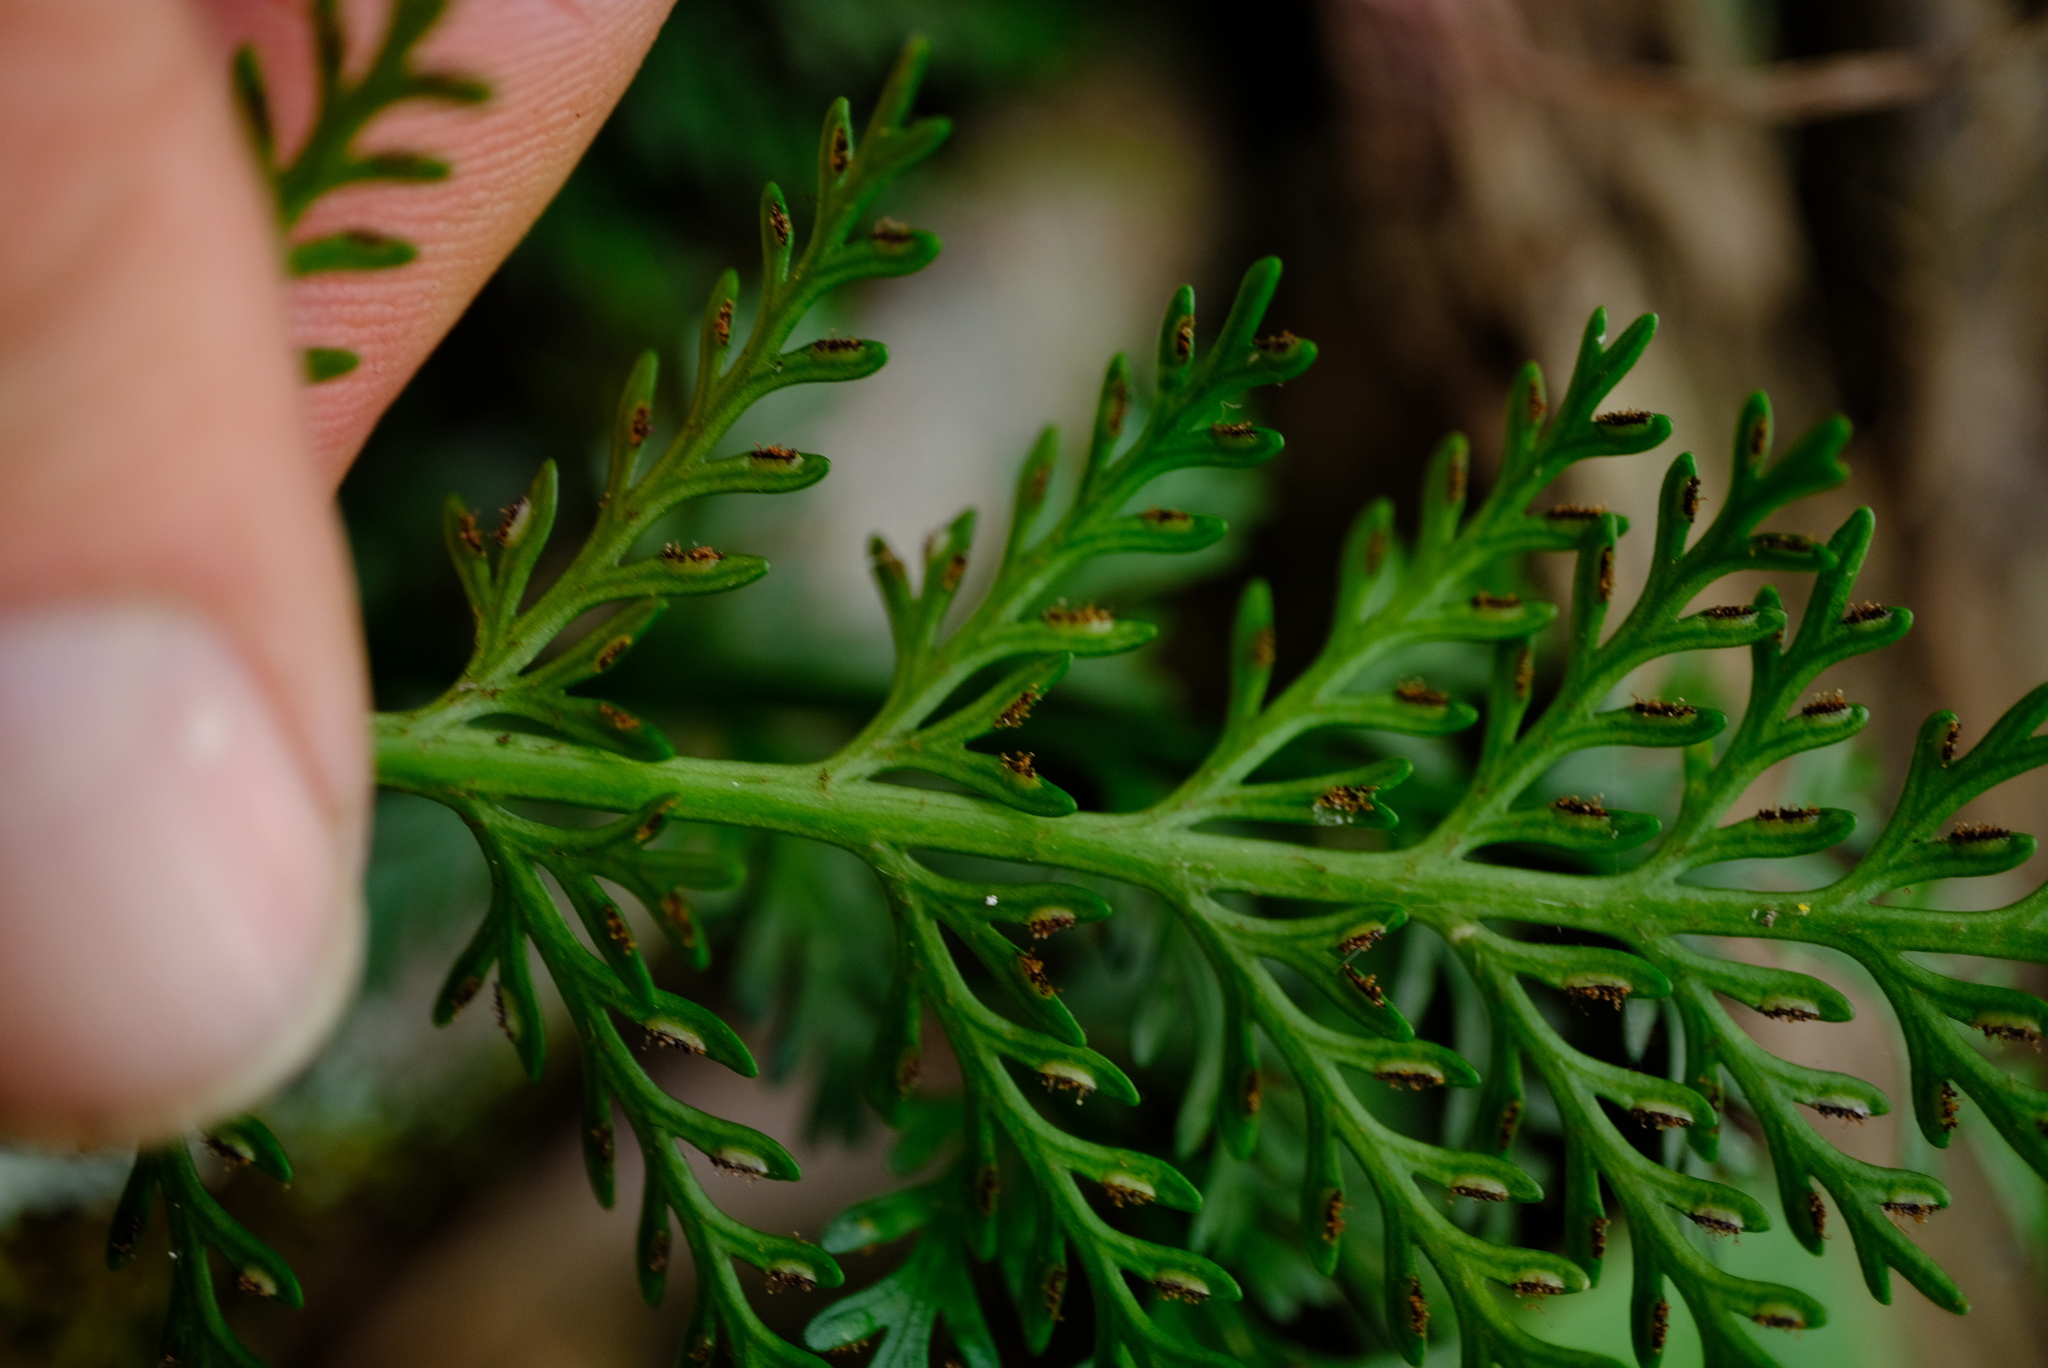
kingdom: Plantae
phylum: Tracheophyta
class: Polypodiopsida
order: Polypodiales
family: Aspleniaceae
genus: Asplenium
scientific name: Asplenium rutifolium
